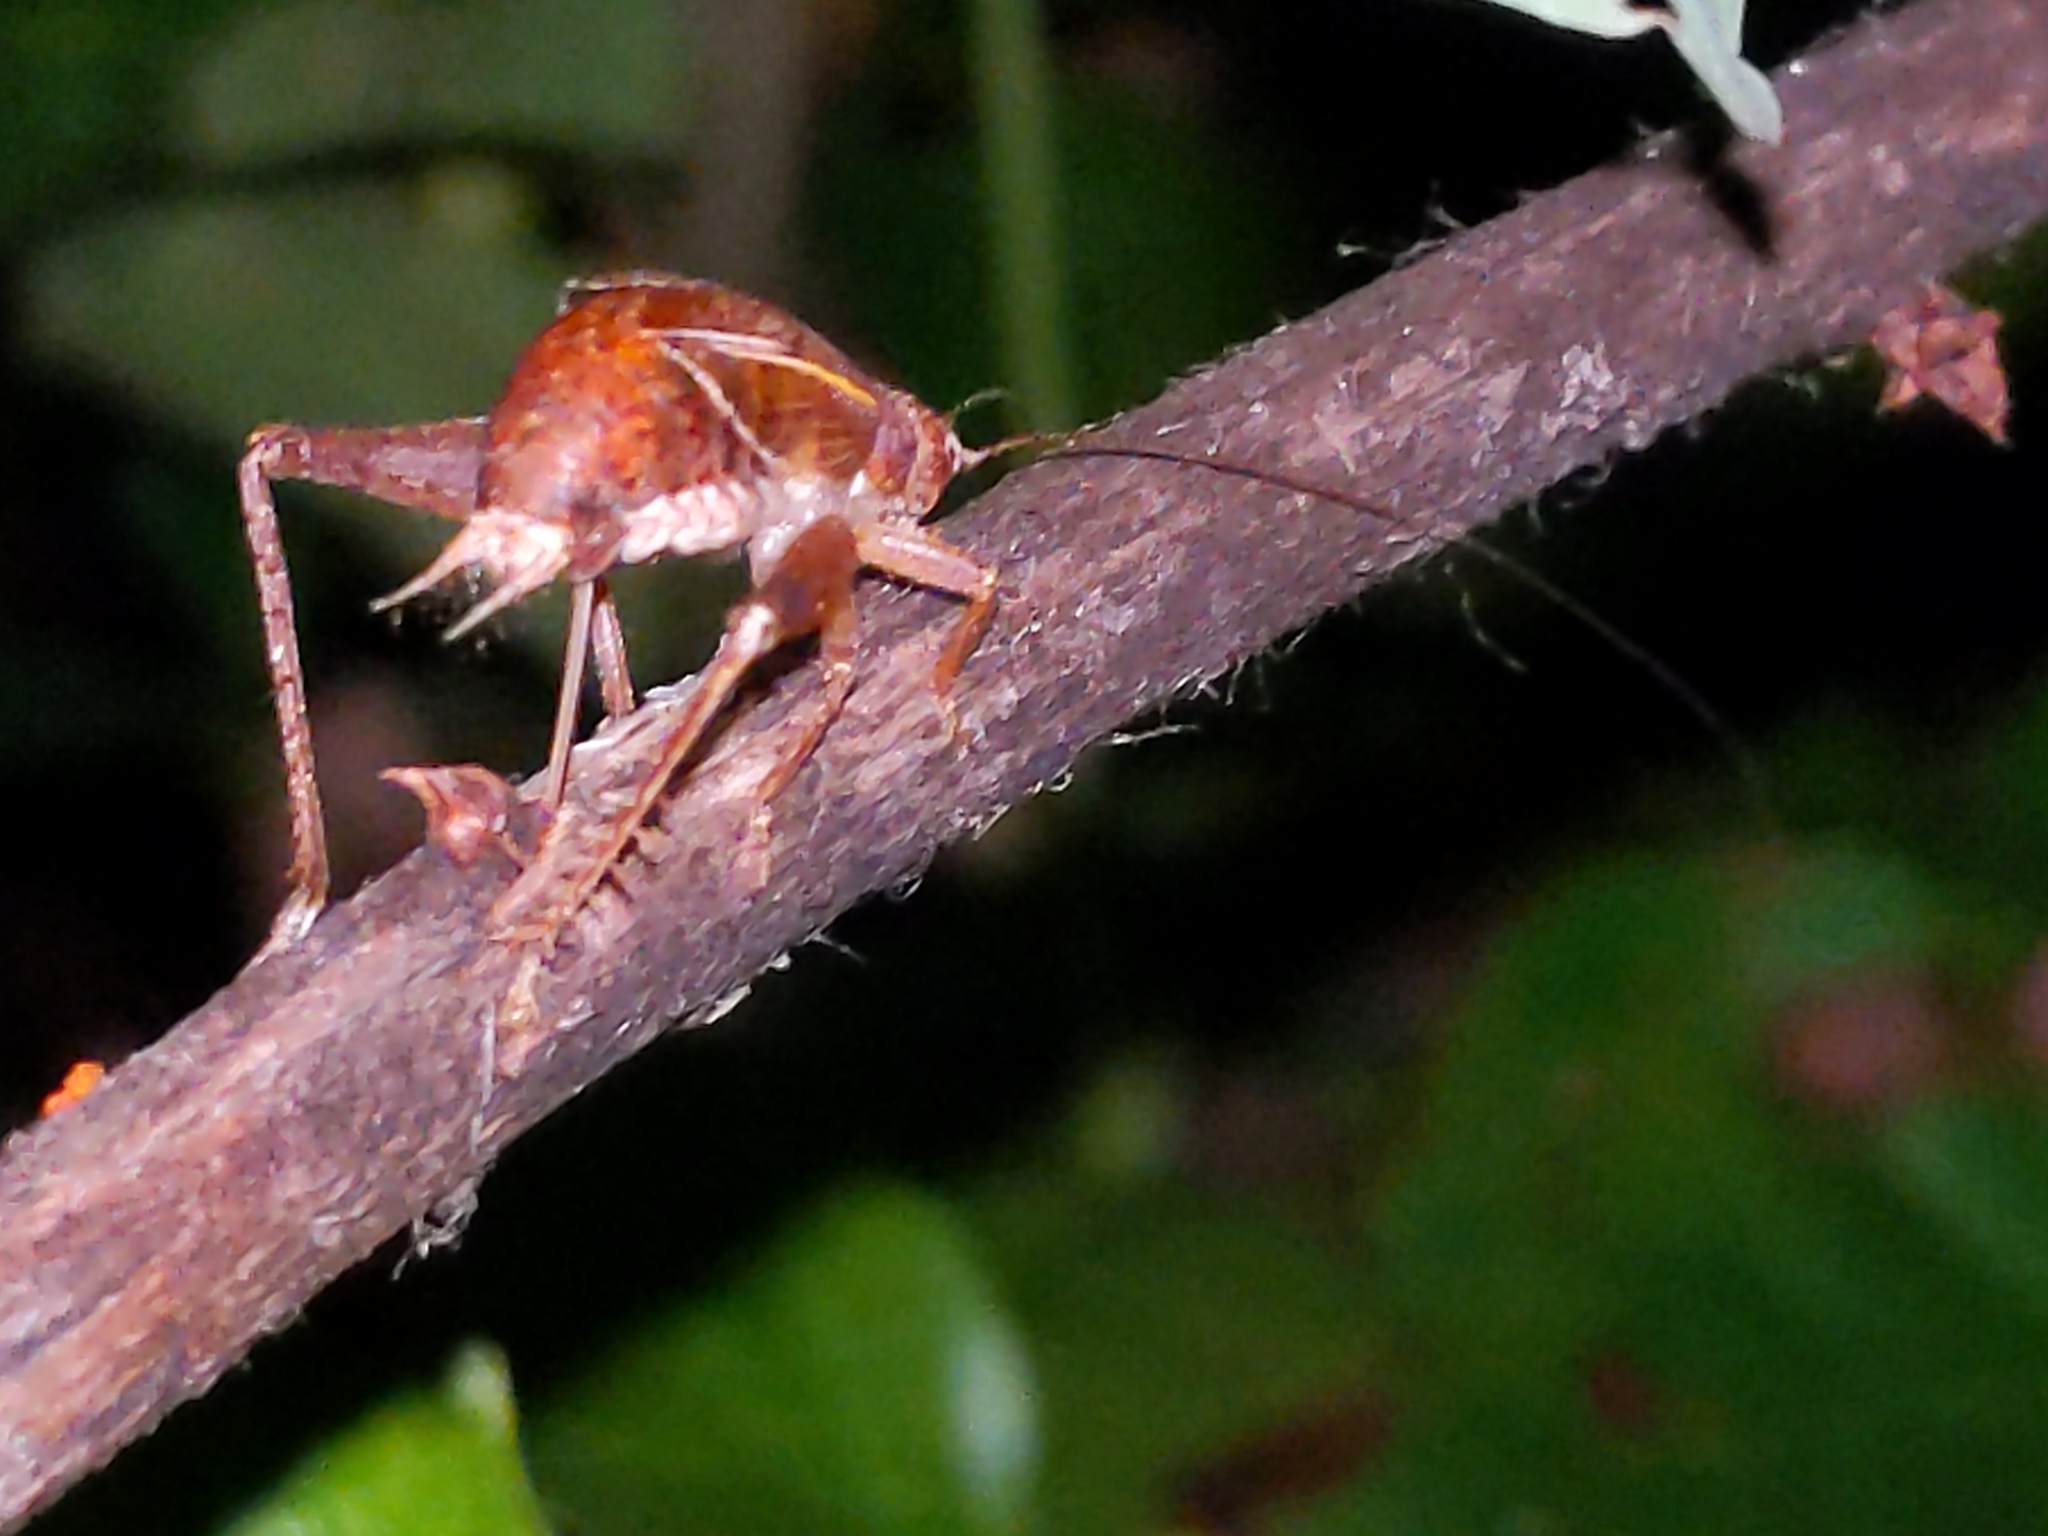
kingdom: Animalia
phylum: Arthropoda
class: Insecta
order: Orthoptera
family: Gryllidae
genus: Hapithus
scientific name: Hapithus agitator
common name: Restless bush cricket
